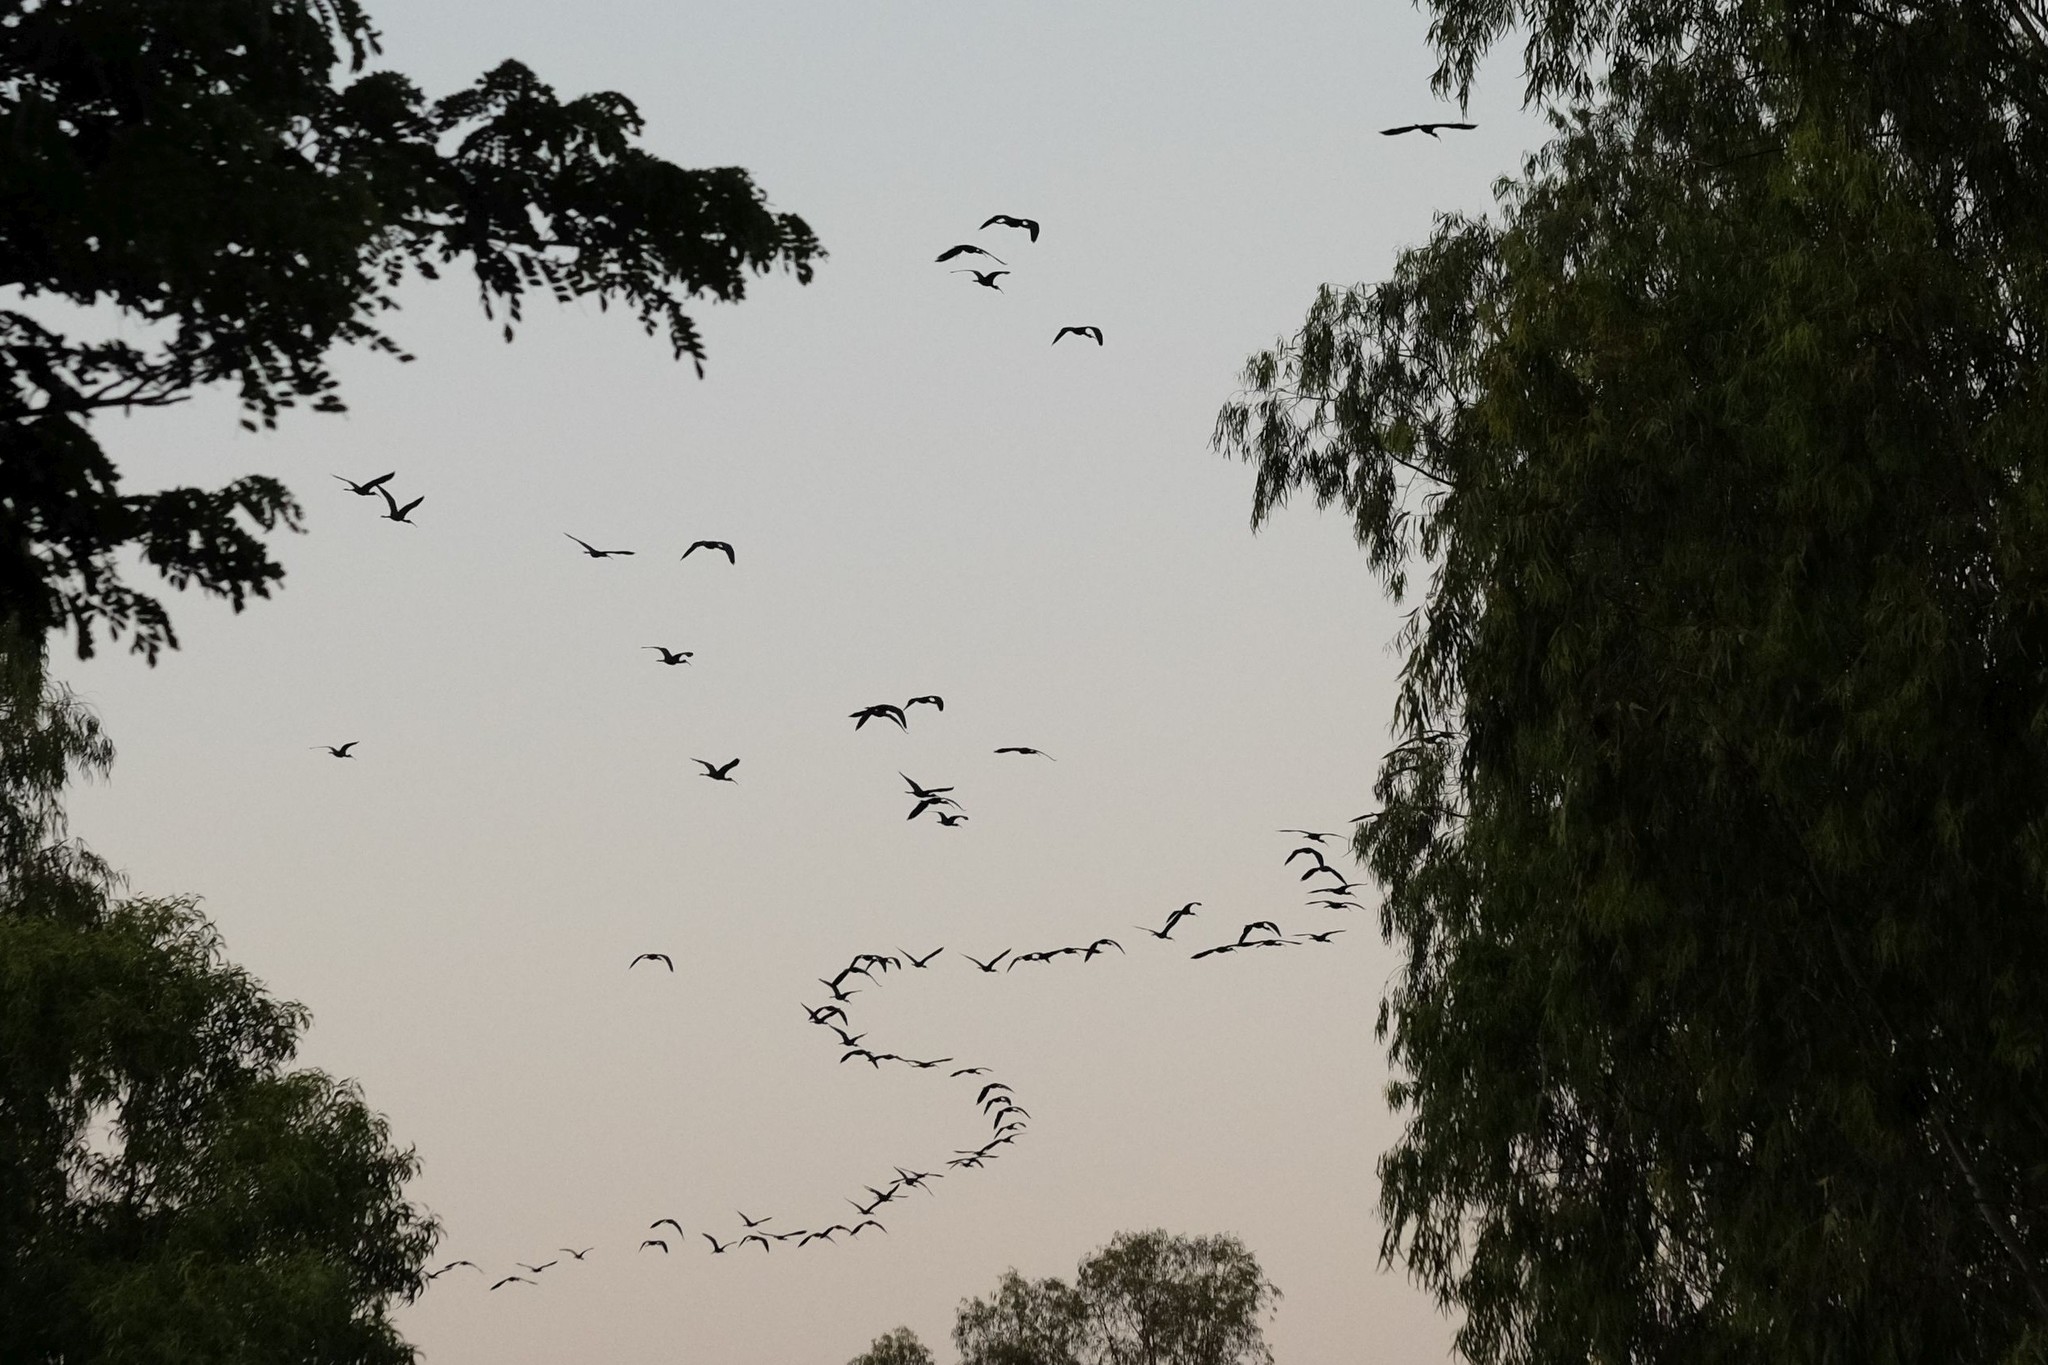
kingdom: Animalia
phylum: Chordata
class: Aves
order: Pelecaniformes
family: Threskiornithidae
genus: Plegadis
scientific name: Plegadis falcinellus
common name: Glossy ibis
